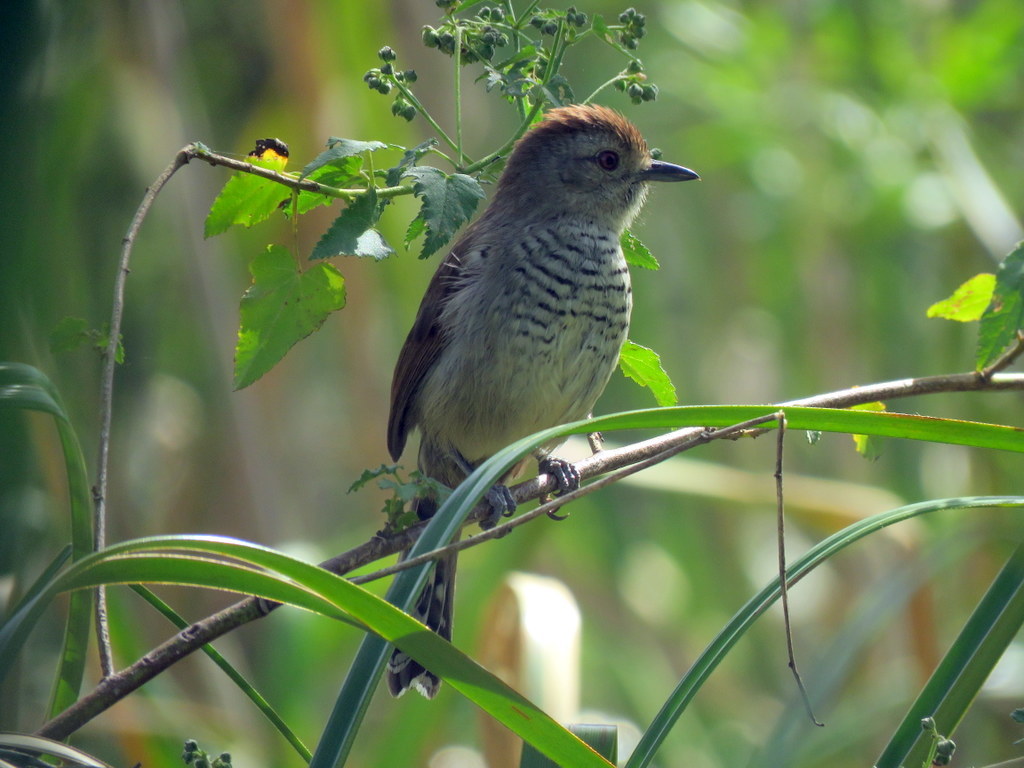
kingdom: Animalia
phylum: Chordata
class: Aves
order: Passeriformes
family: Thamnophilidae
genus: Thamnophilus
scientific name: Thamnophilus ruficapillus
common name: Rufous-capped antshrike
